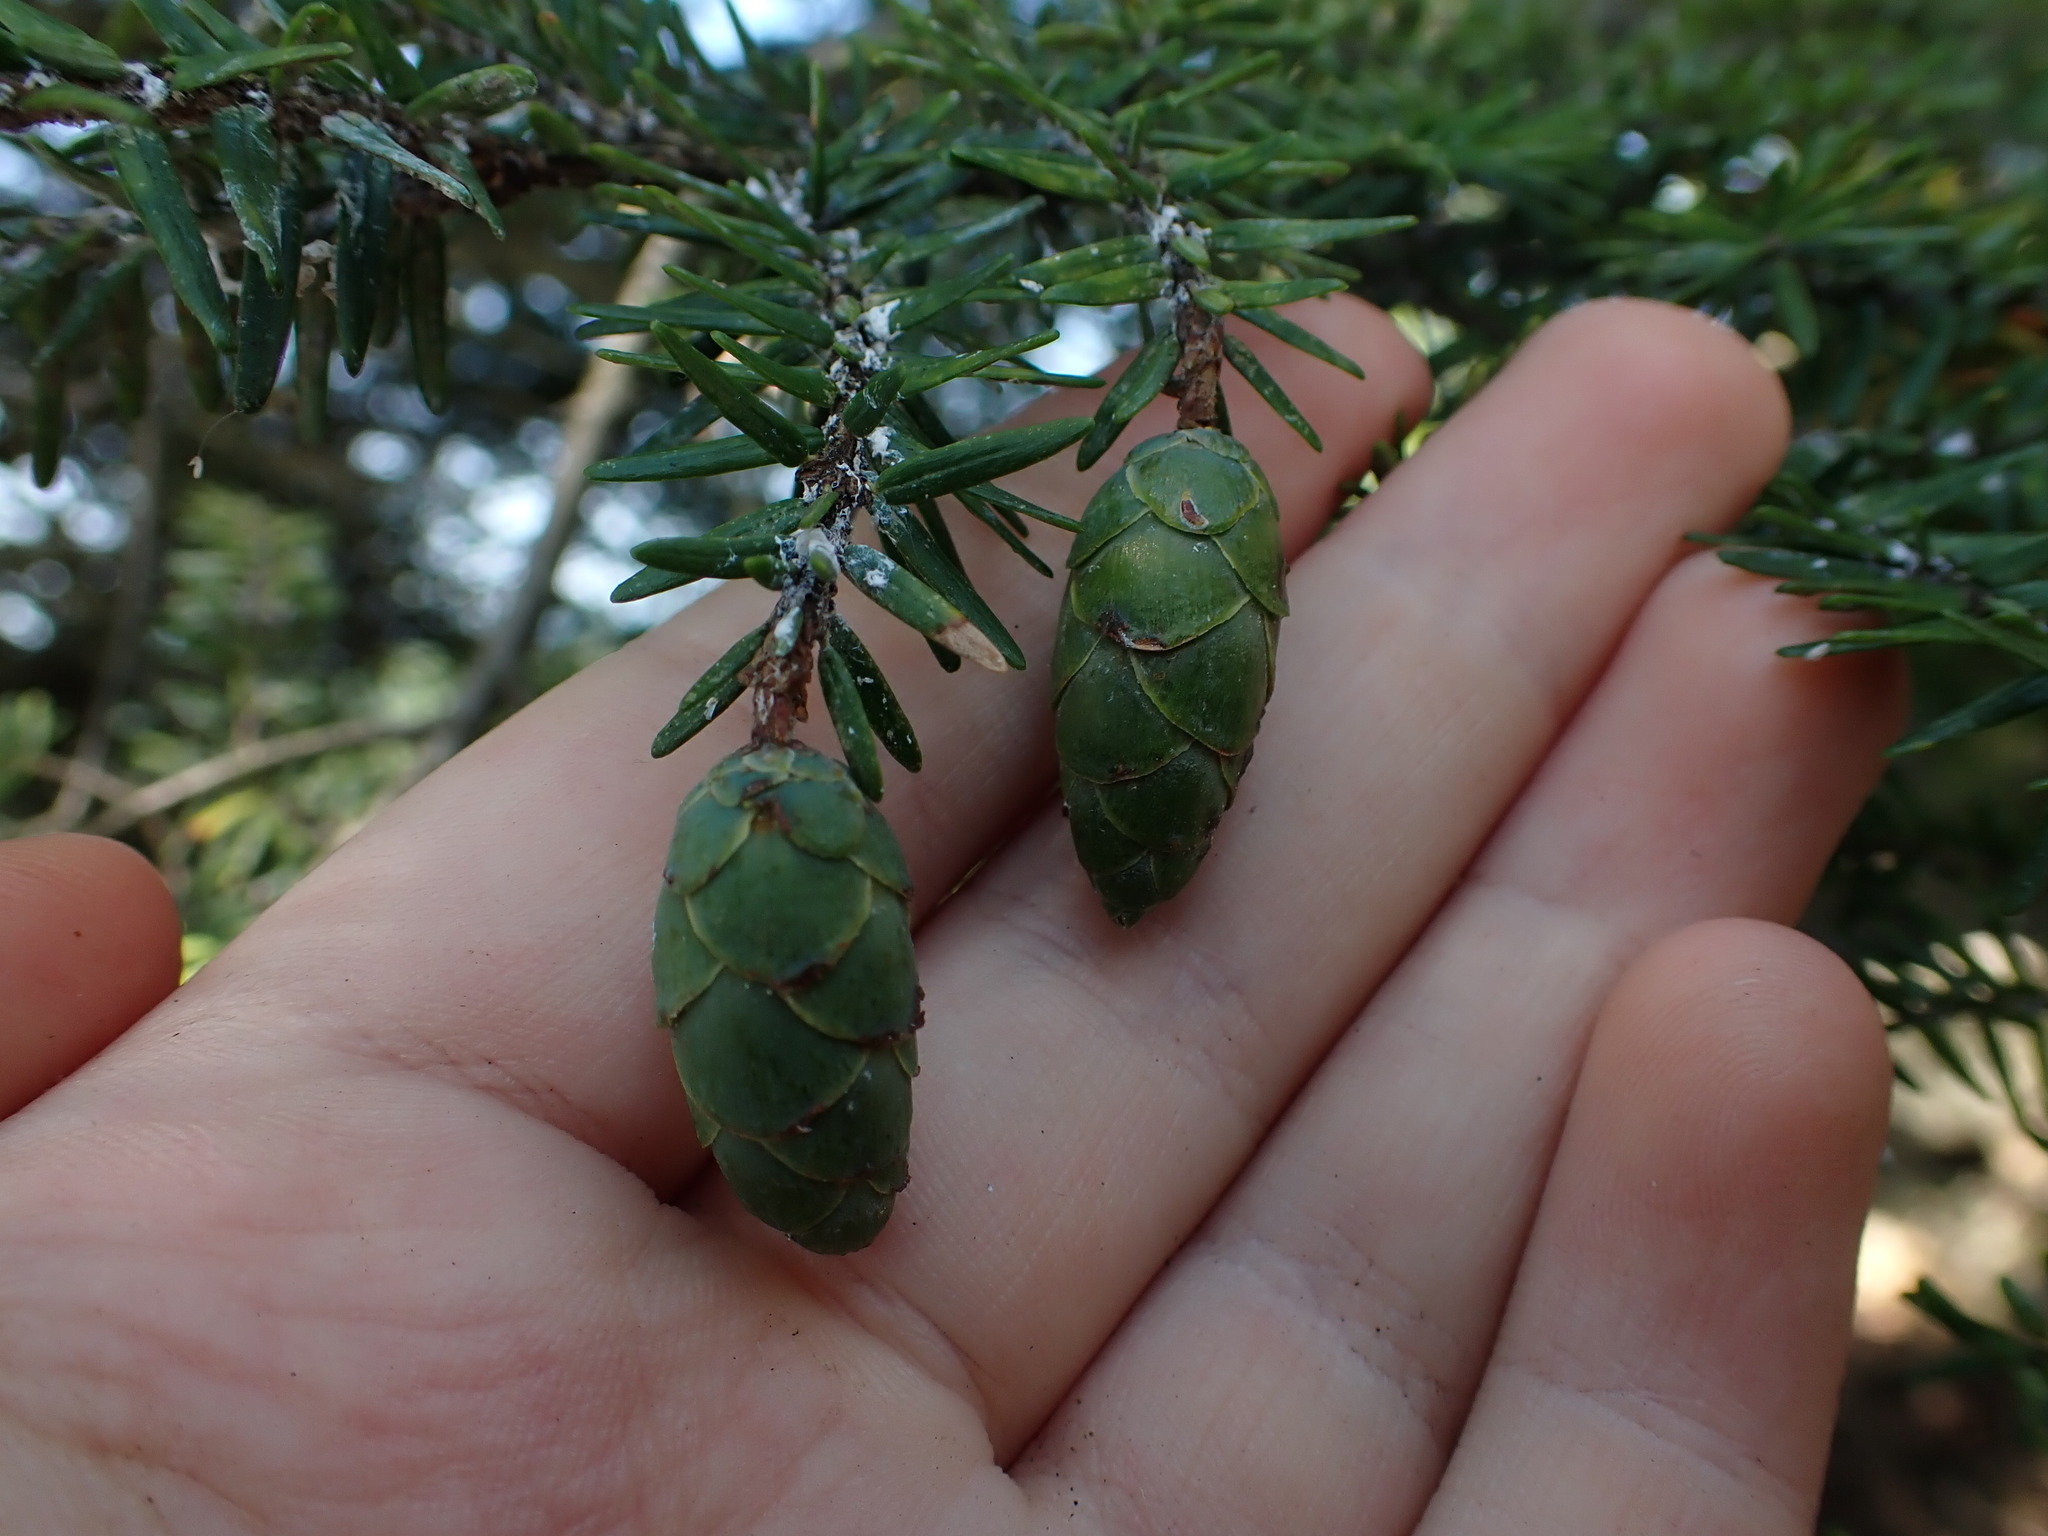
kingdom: Plantae
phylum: Tracheophyta
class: Pinopsida
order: Pinales
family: Pinaceae
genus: Tsuga
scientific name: Tsuga canadensis
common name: Eastern hemlock
